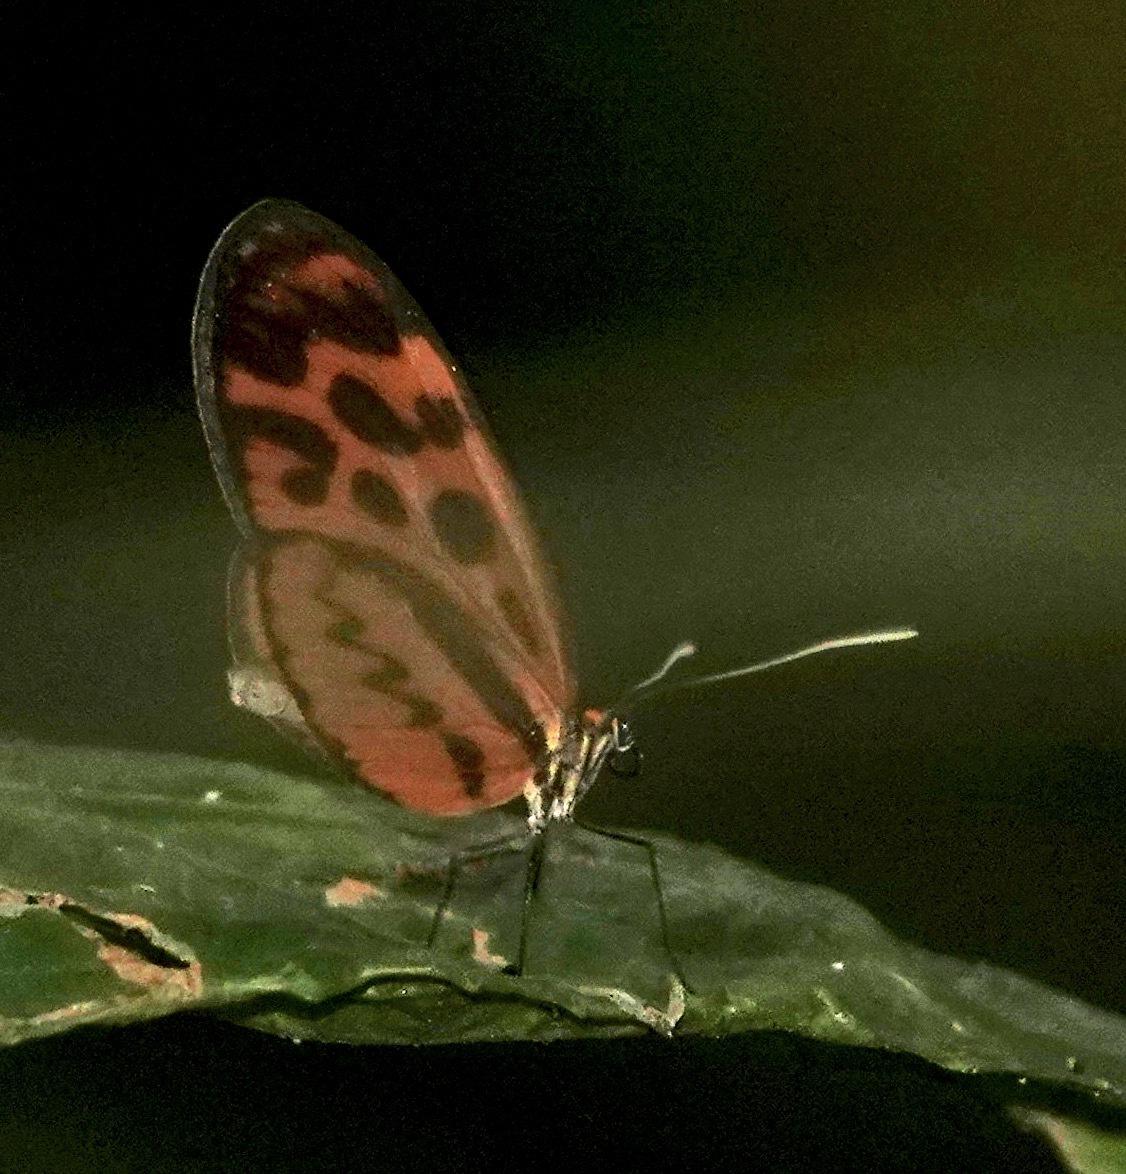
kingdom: Animalia
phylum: Arthropoda
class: Insecta
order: Lepidoptera
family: Nymphalidae
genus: Forbestra
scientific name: Forbestra olivencia
